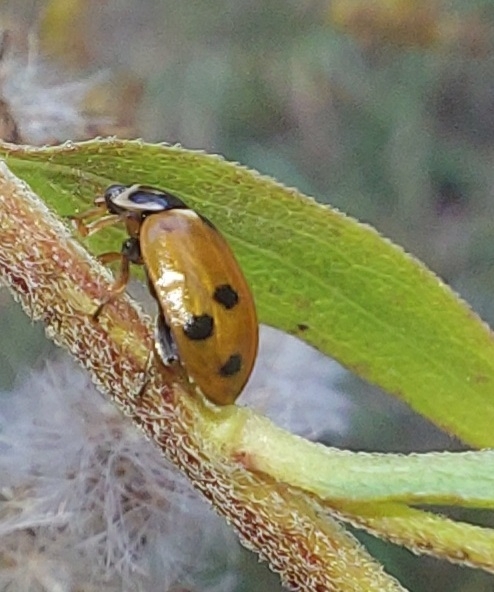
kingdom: Animalia
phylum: Arthropoda
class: Insecta
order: Coleoptera
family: Coccinellidae
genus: Hippodamia
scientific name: Hippodamia variegata
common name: Ladybird beetle
